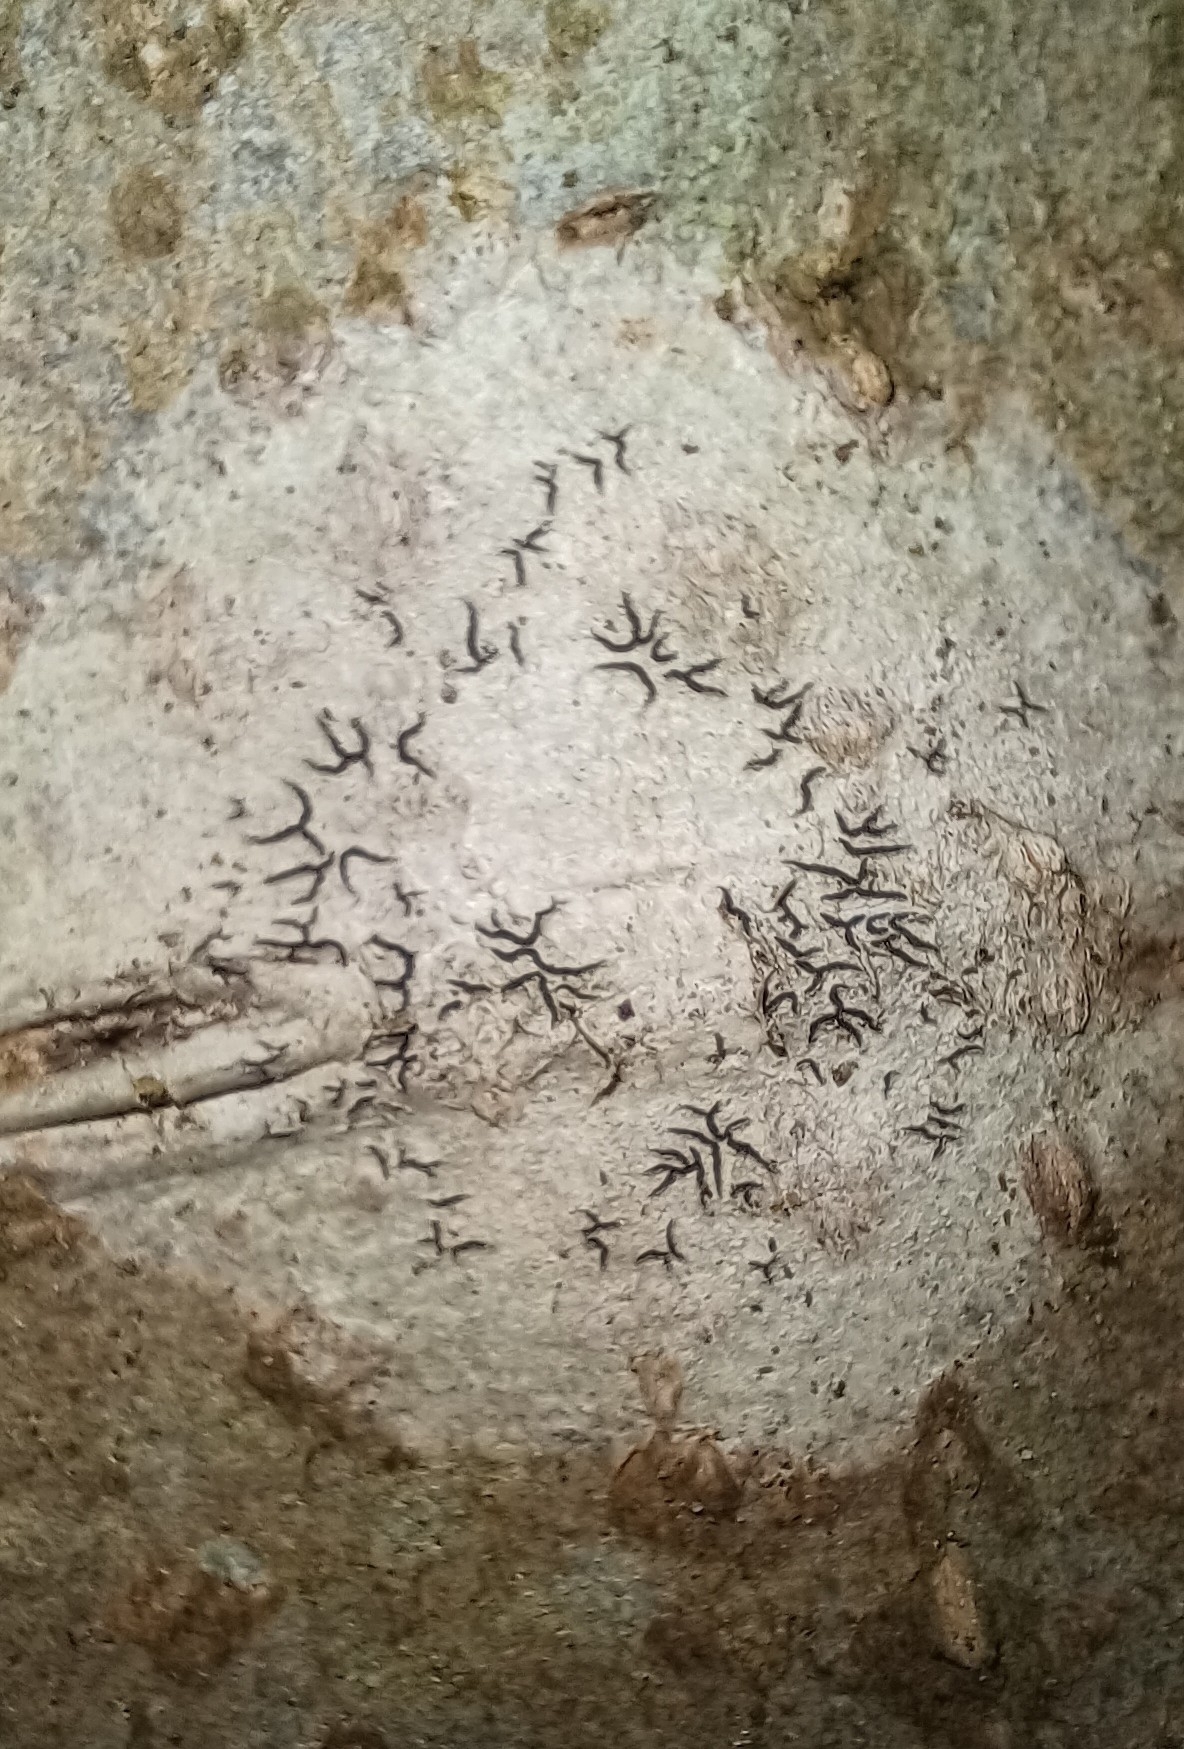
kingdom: Fungi
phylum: Ascomycota
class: Lecanoromycetes
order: Ostropales
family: Graphidaceae
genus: Graphis
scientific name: Graphis scripta
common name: Script lichen
